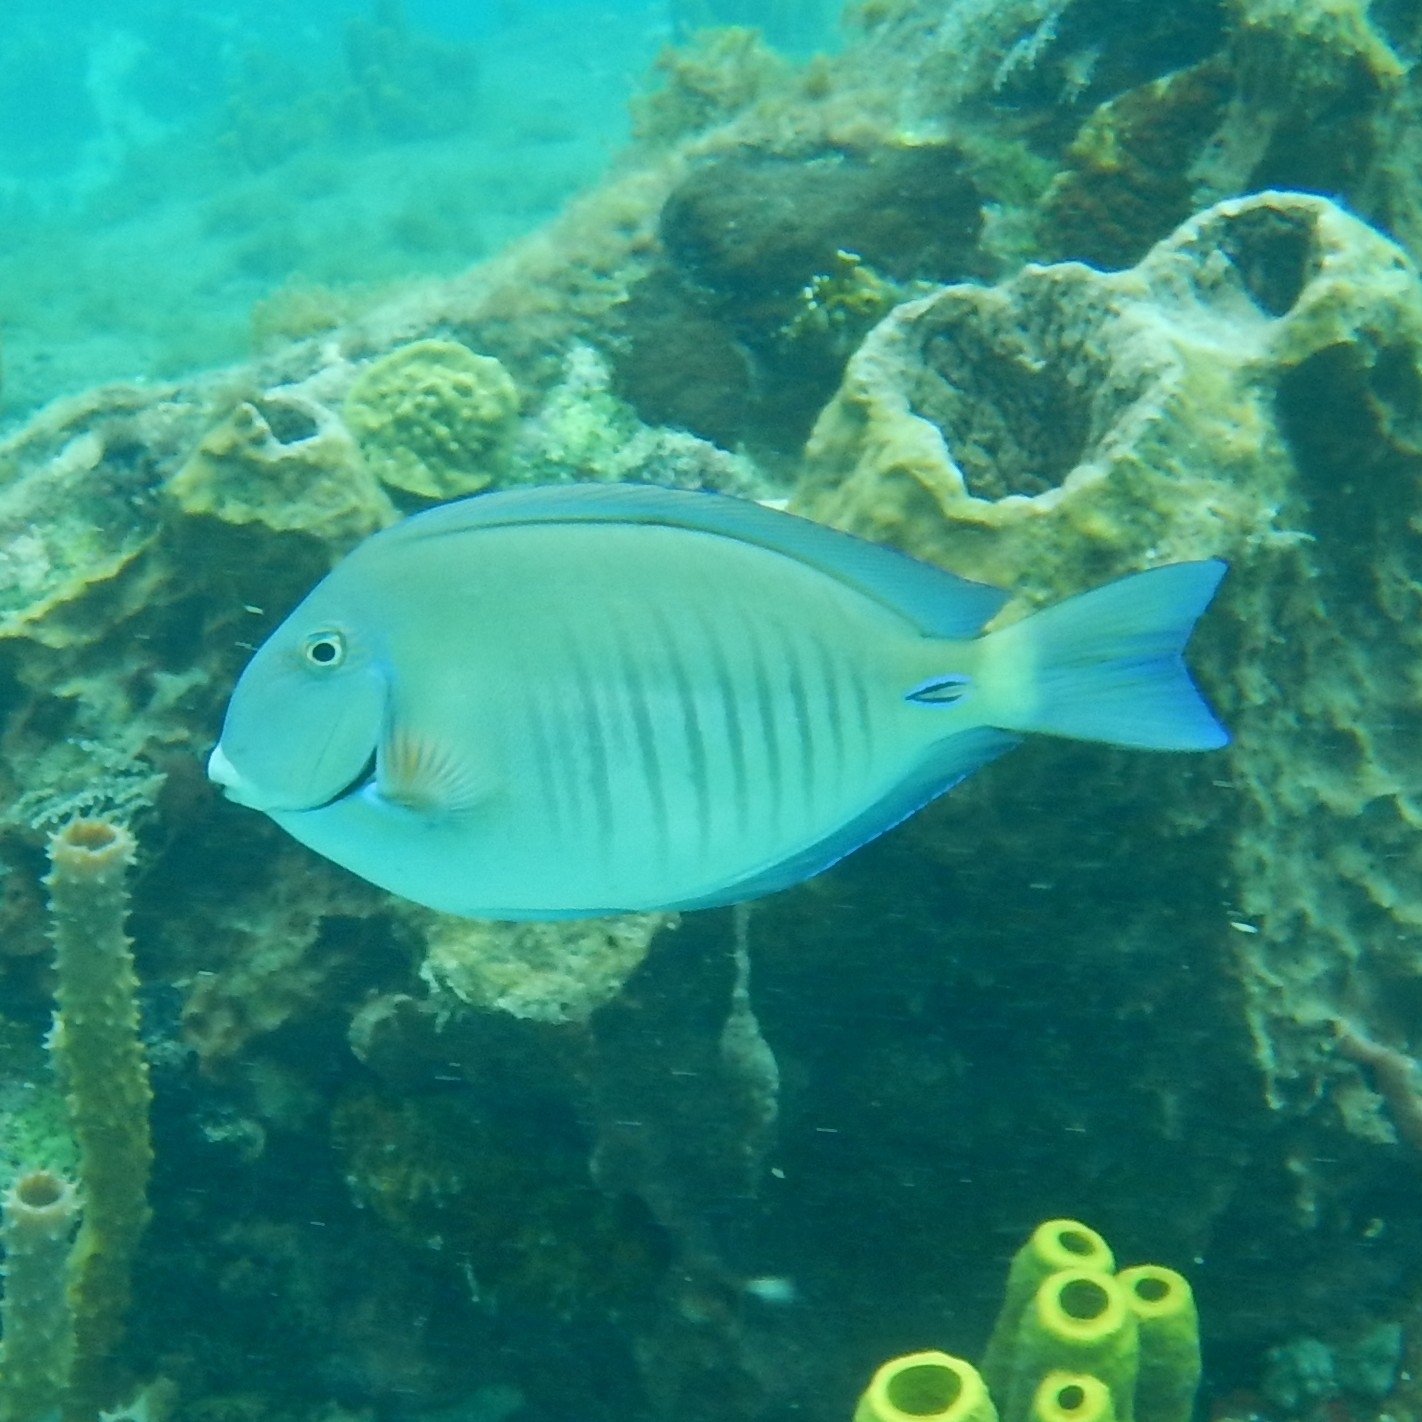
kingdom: Animalia
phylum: Chordata
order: Perciformes
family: Acanthuridae
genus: Acanthurus
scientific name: Acanthurus chirurgus
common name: Doctorfish
